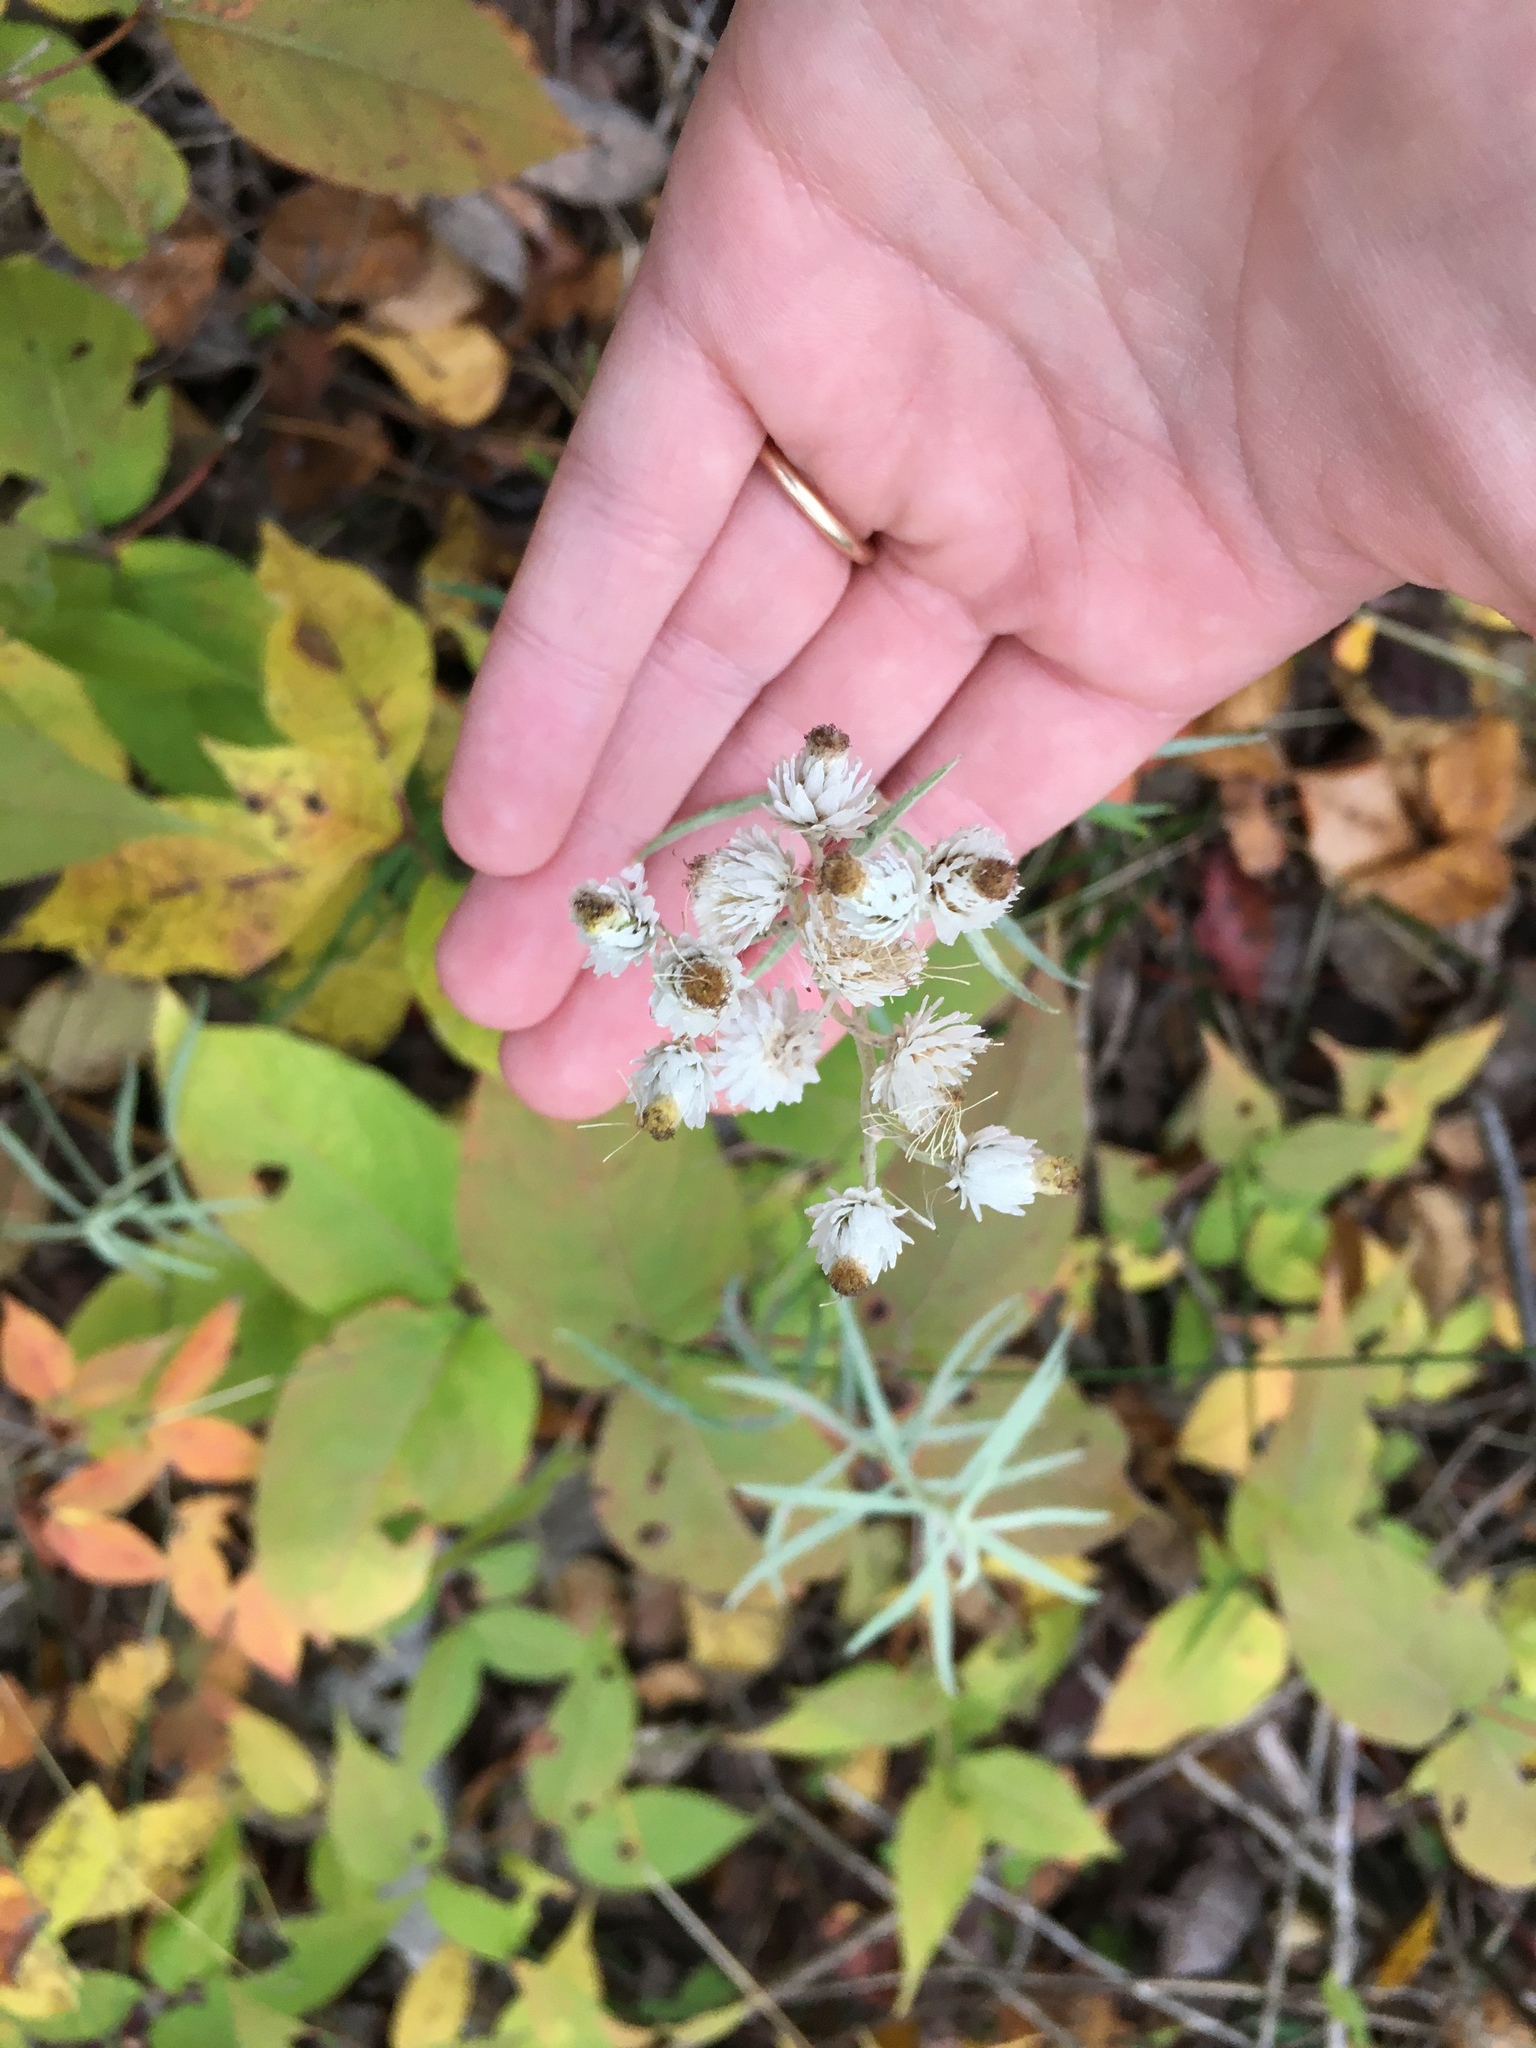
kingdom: Plantae
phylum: Tracheophyta
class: Magnoliopsida
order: Asterales
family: Asteraceae
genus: Anaphalis
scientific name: Anaphalis margaritacea
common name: Pearly everlasting
